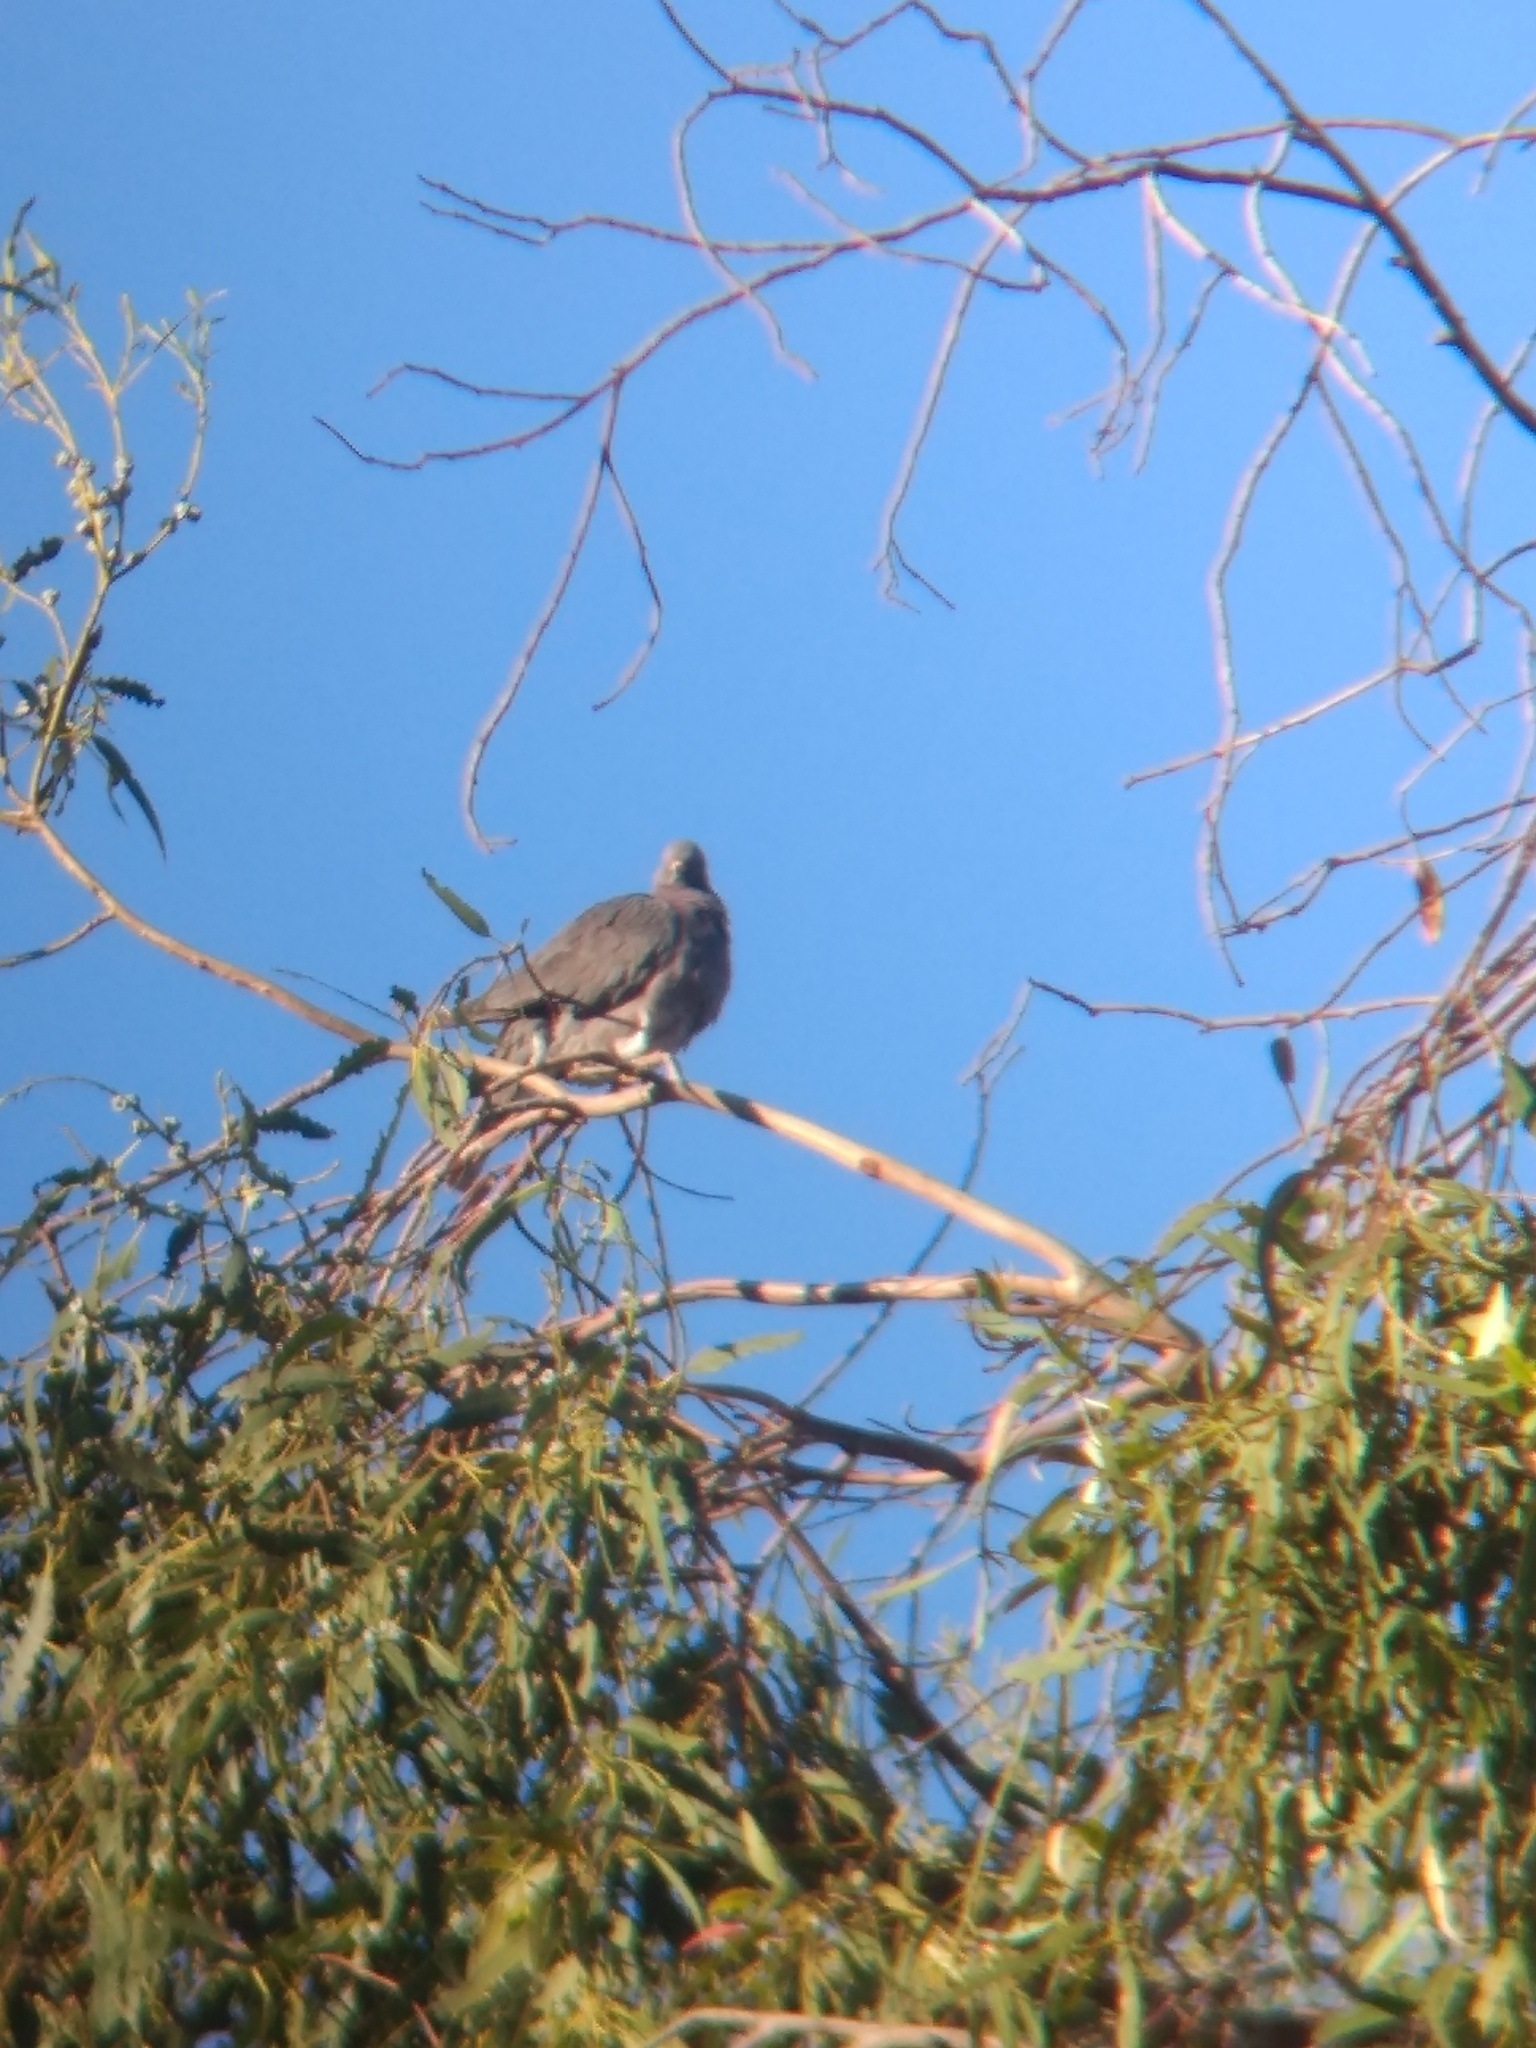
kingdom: Animalia
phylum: Chordata
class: Aves
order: Columbiformes
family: Columbidae
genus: Patagioenas
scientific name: Patagioenas fasciata
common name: Band-tailed pigeon
